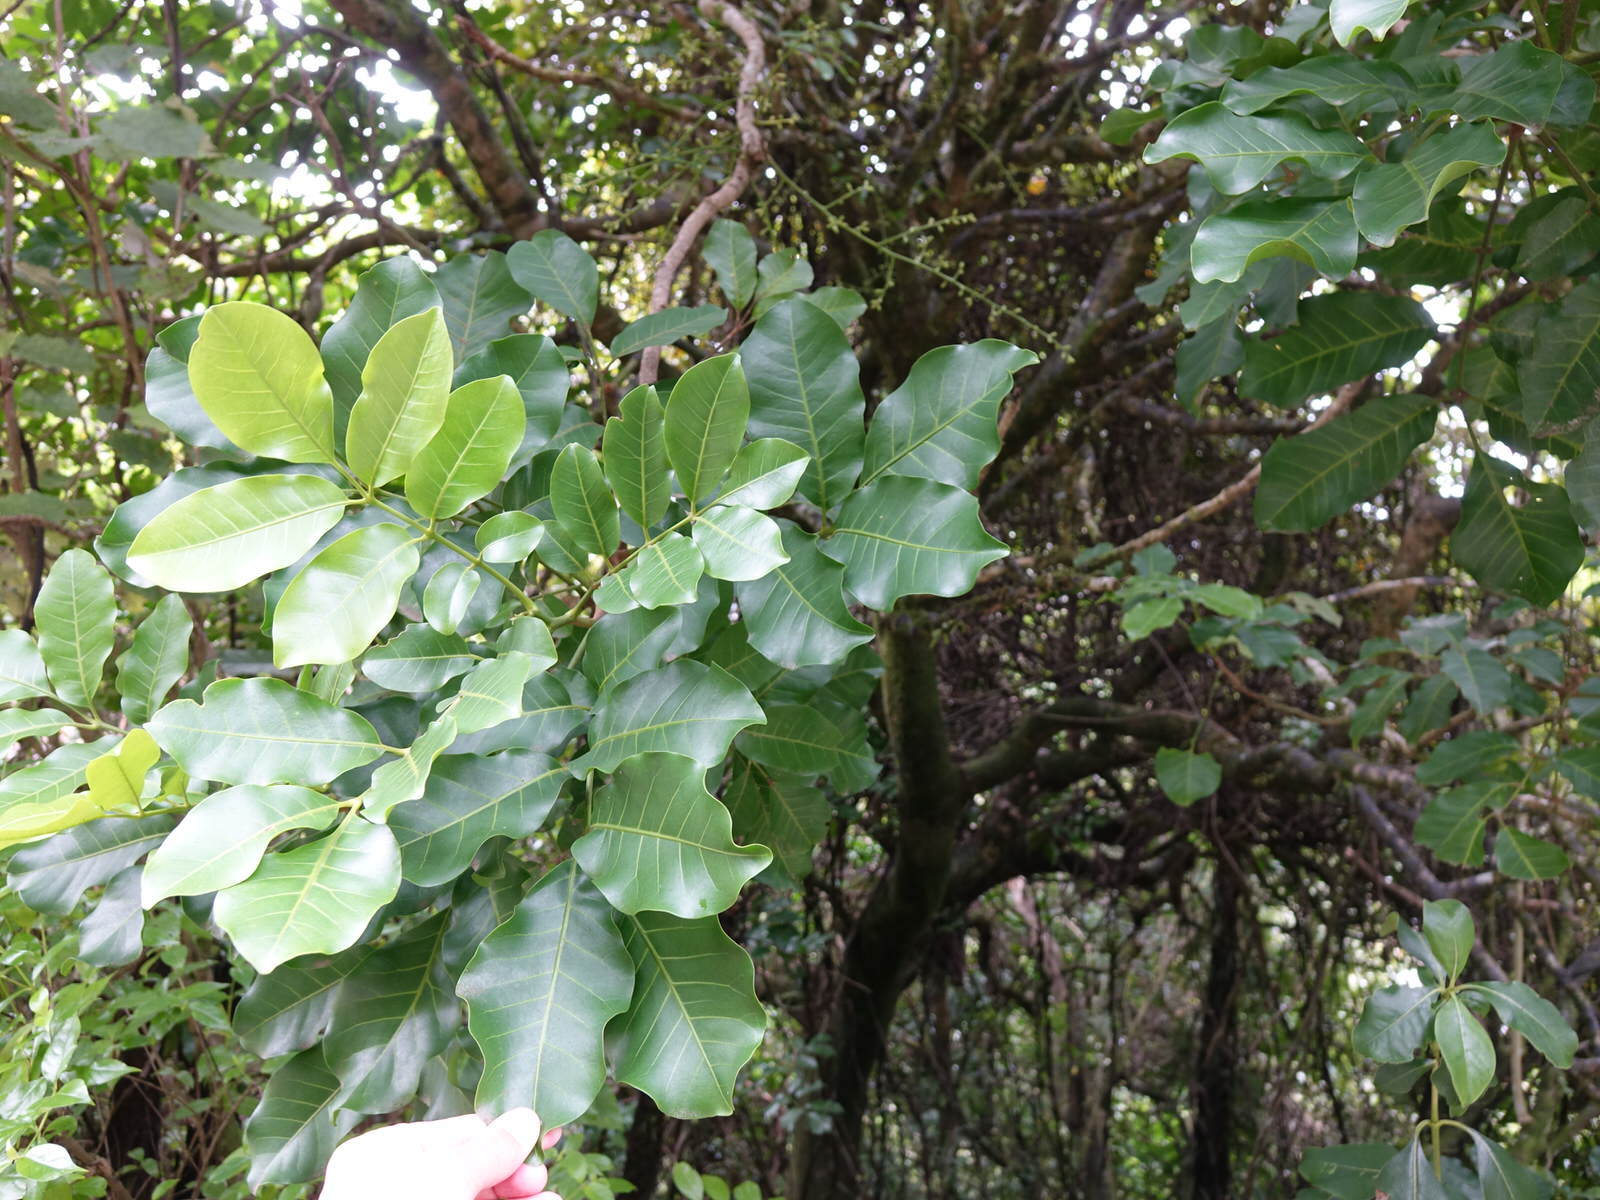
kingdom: Plantae
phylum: Tracheophyta
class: Magnoliopsida
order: Sapindales
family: Meliaceae
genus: Didymocheton
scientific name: Didymocheton spectabilis
